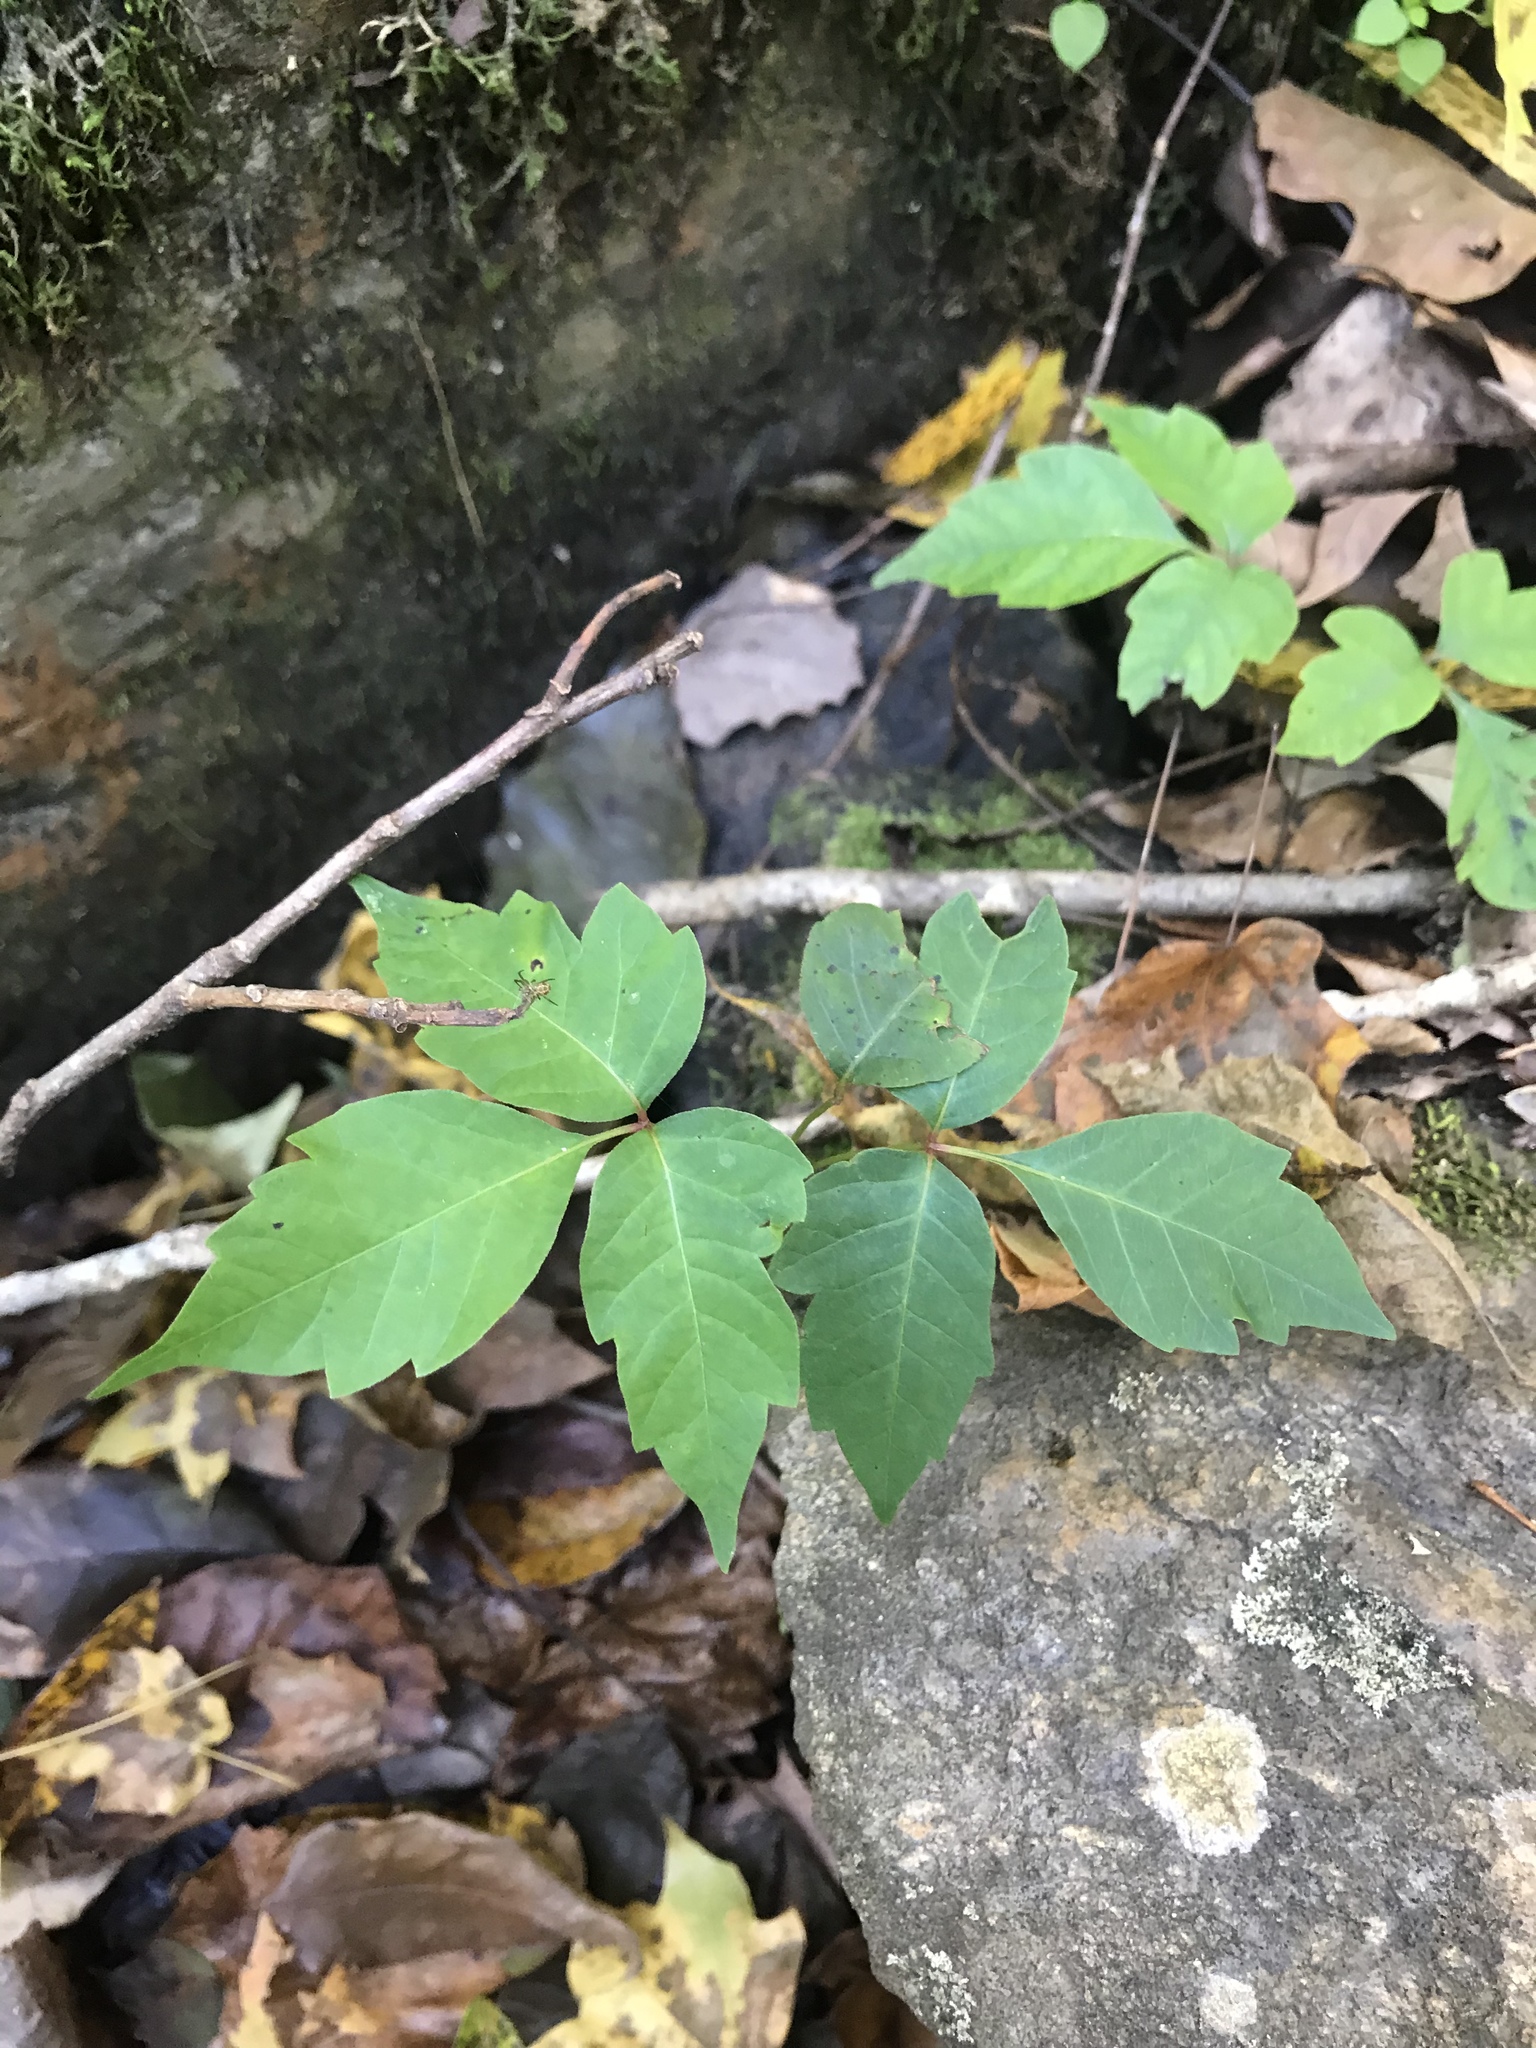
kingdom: Plantae
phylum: Tracheophyta
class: Magnoliopsida
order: Sapindales
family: Anacardiaceae
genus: Toxicodendron
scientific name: Toxicodendron radicans
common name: Poison ivy
